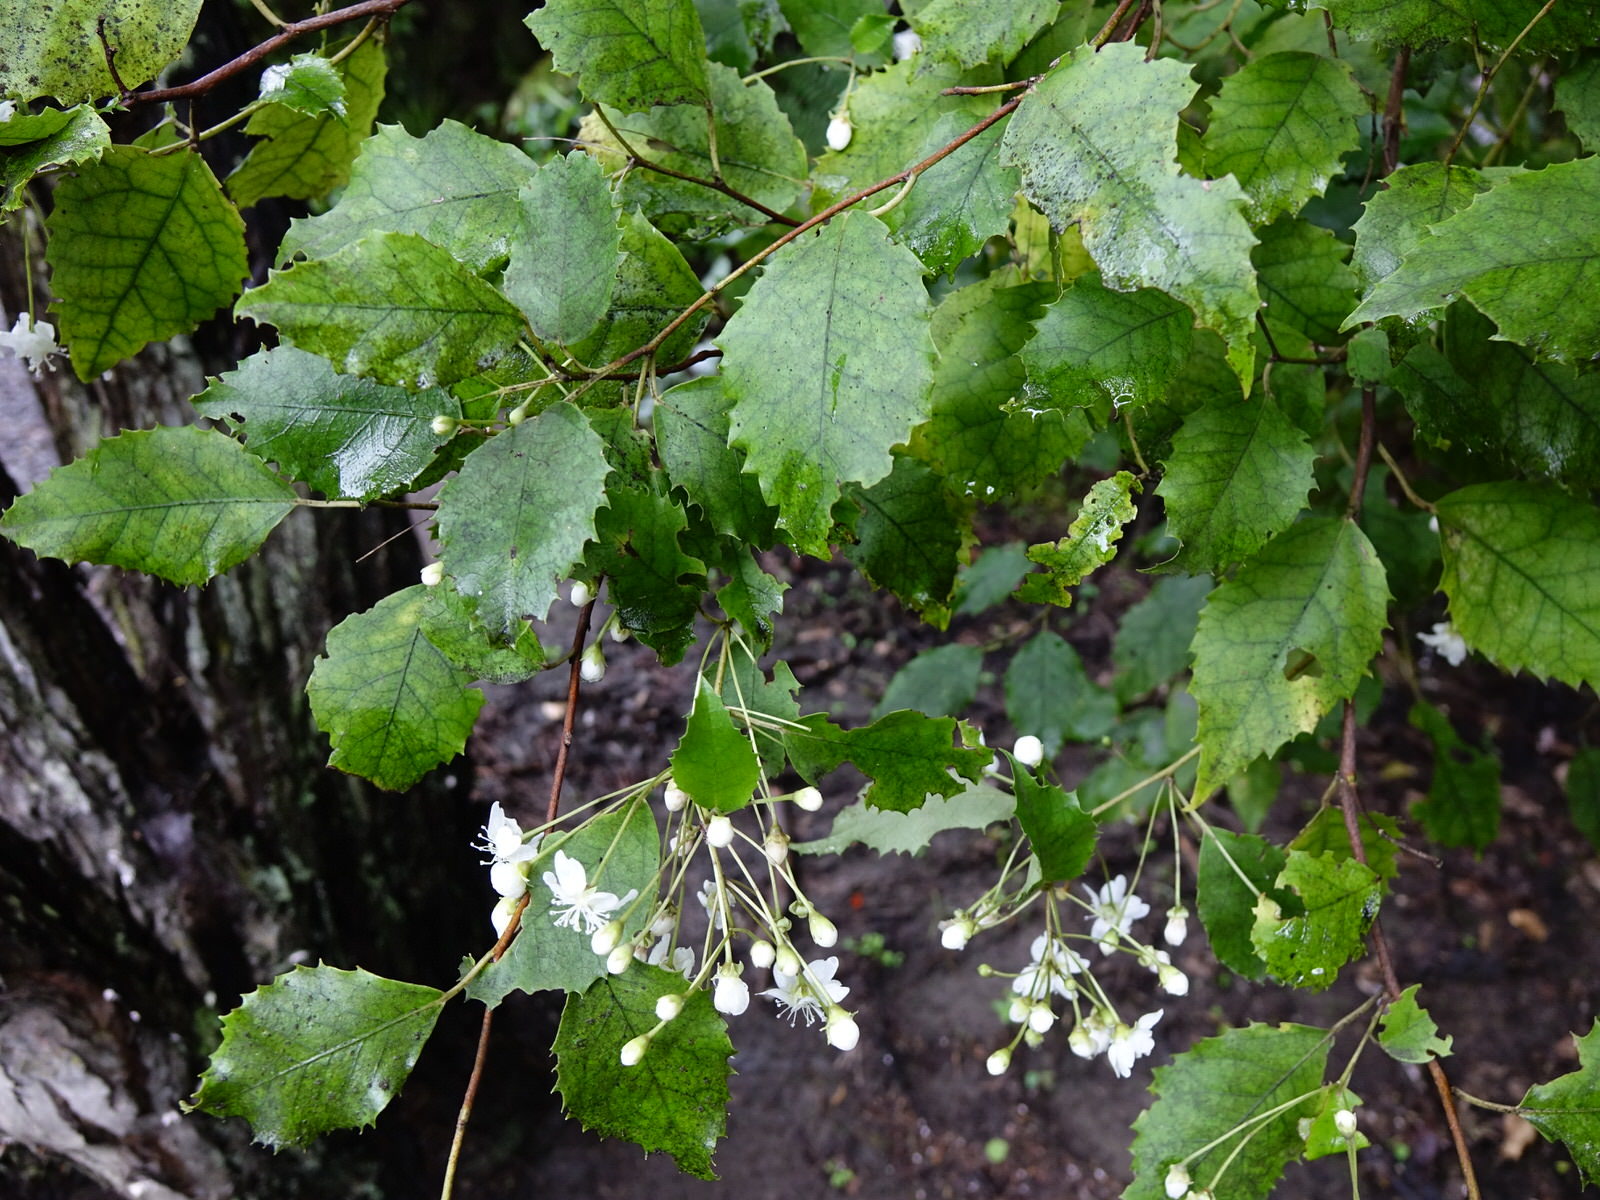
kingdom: Plantae
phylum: Tracheophyta
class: Magnoliopsida
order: Malvales
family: Malvaceae
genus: Hoheria
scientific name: Hoheria populnea
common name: Lacebark
